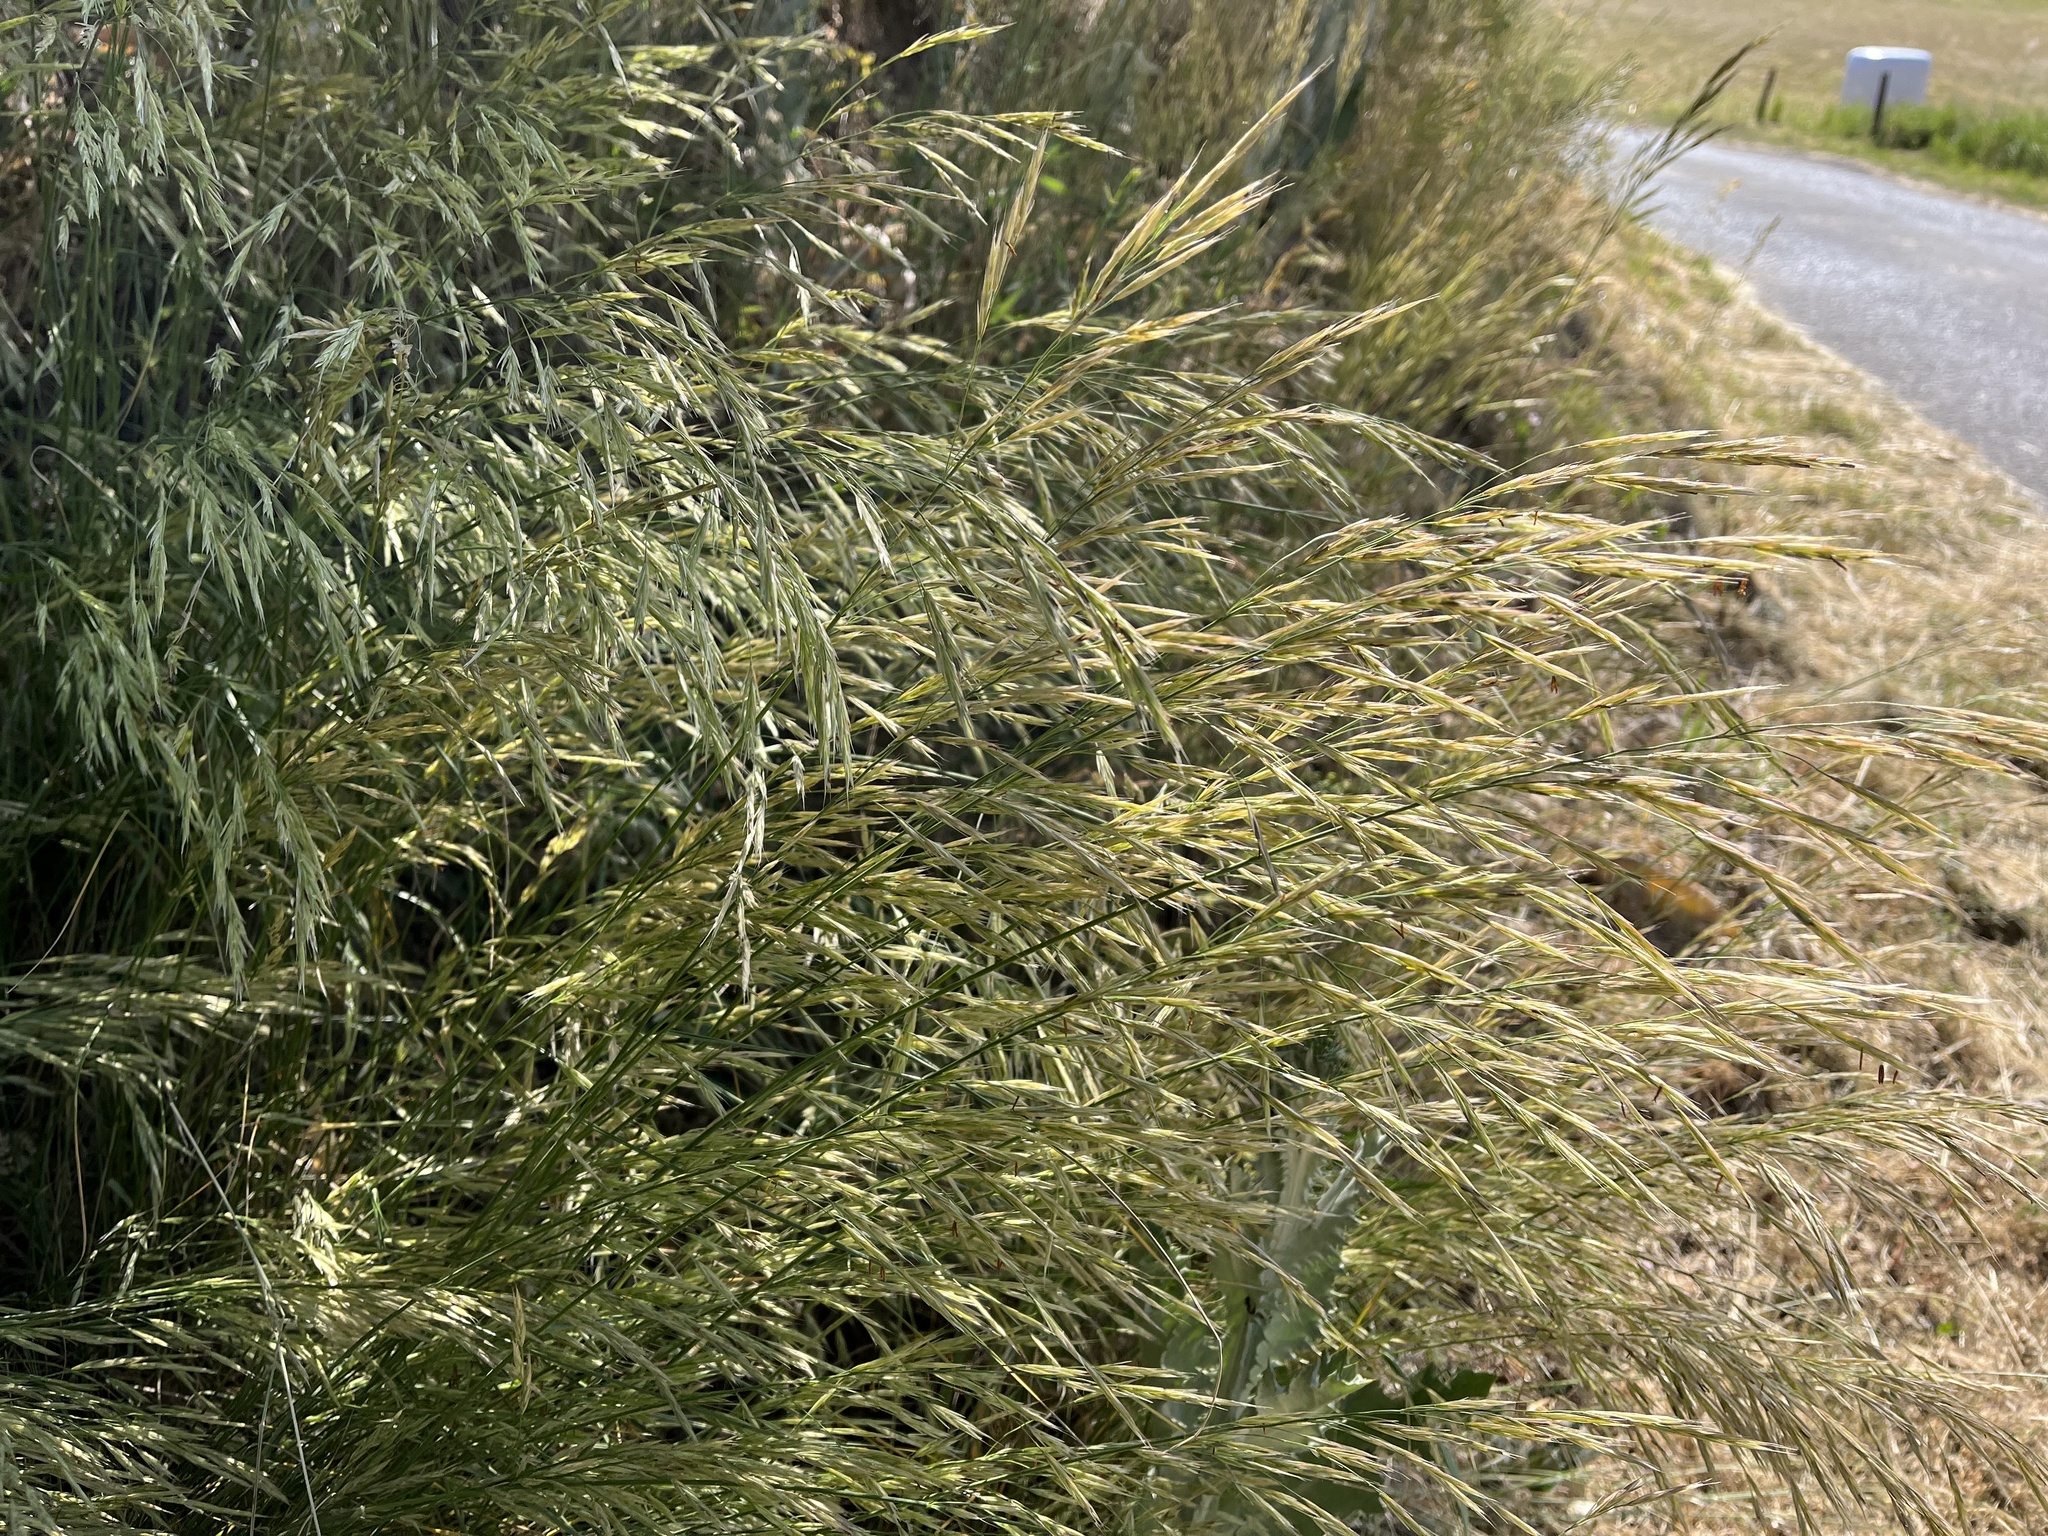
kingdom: Plantae
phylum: Tracheophyta
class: Liliopsida
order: Poales
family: Poaceae
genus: Bromus
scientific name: Bromus erectus
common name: Erect brome
